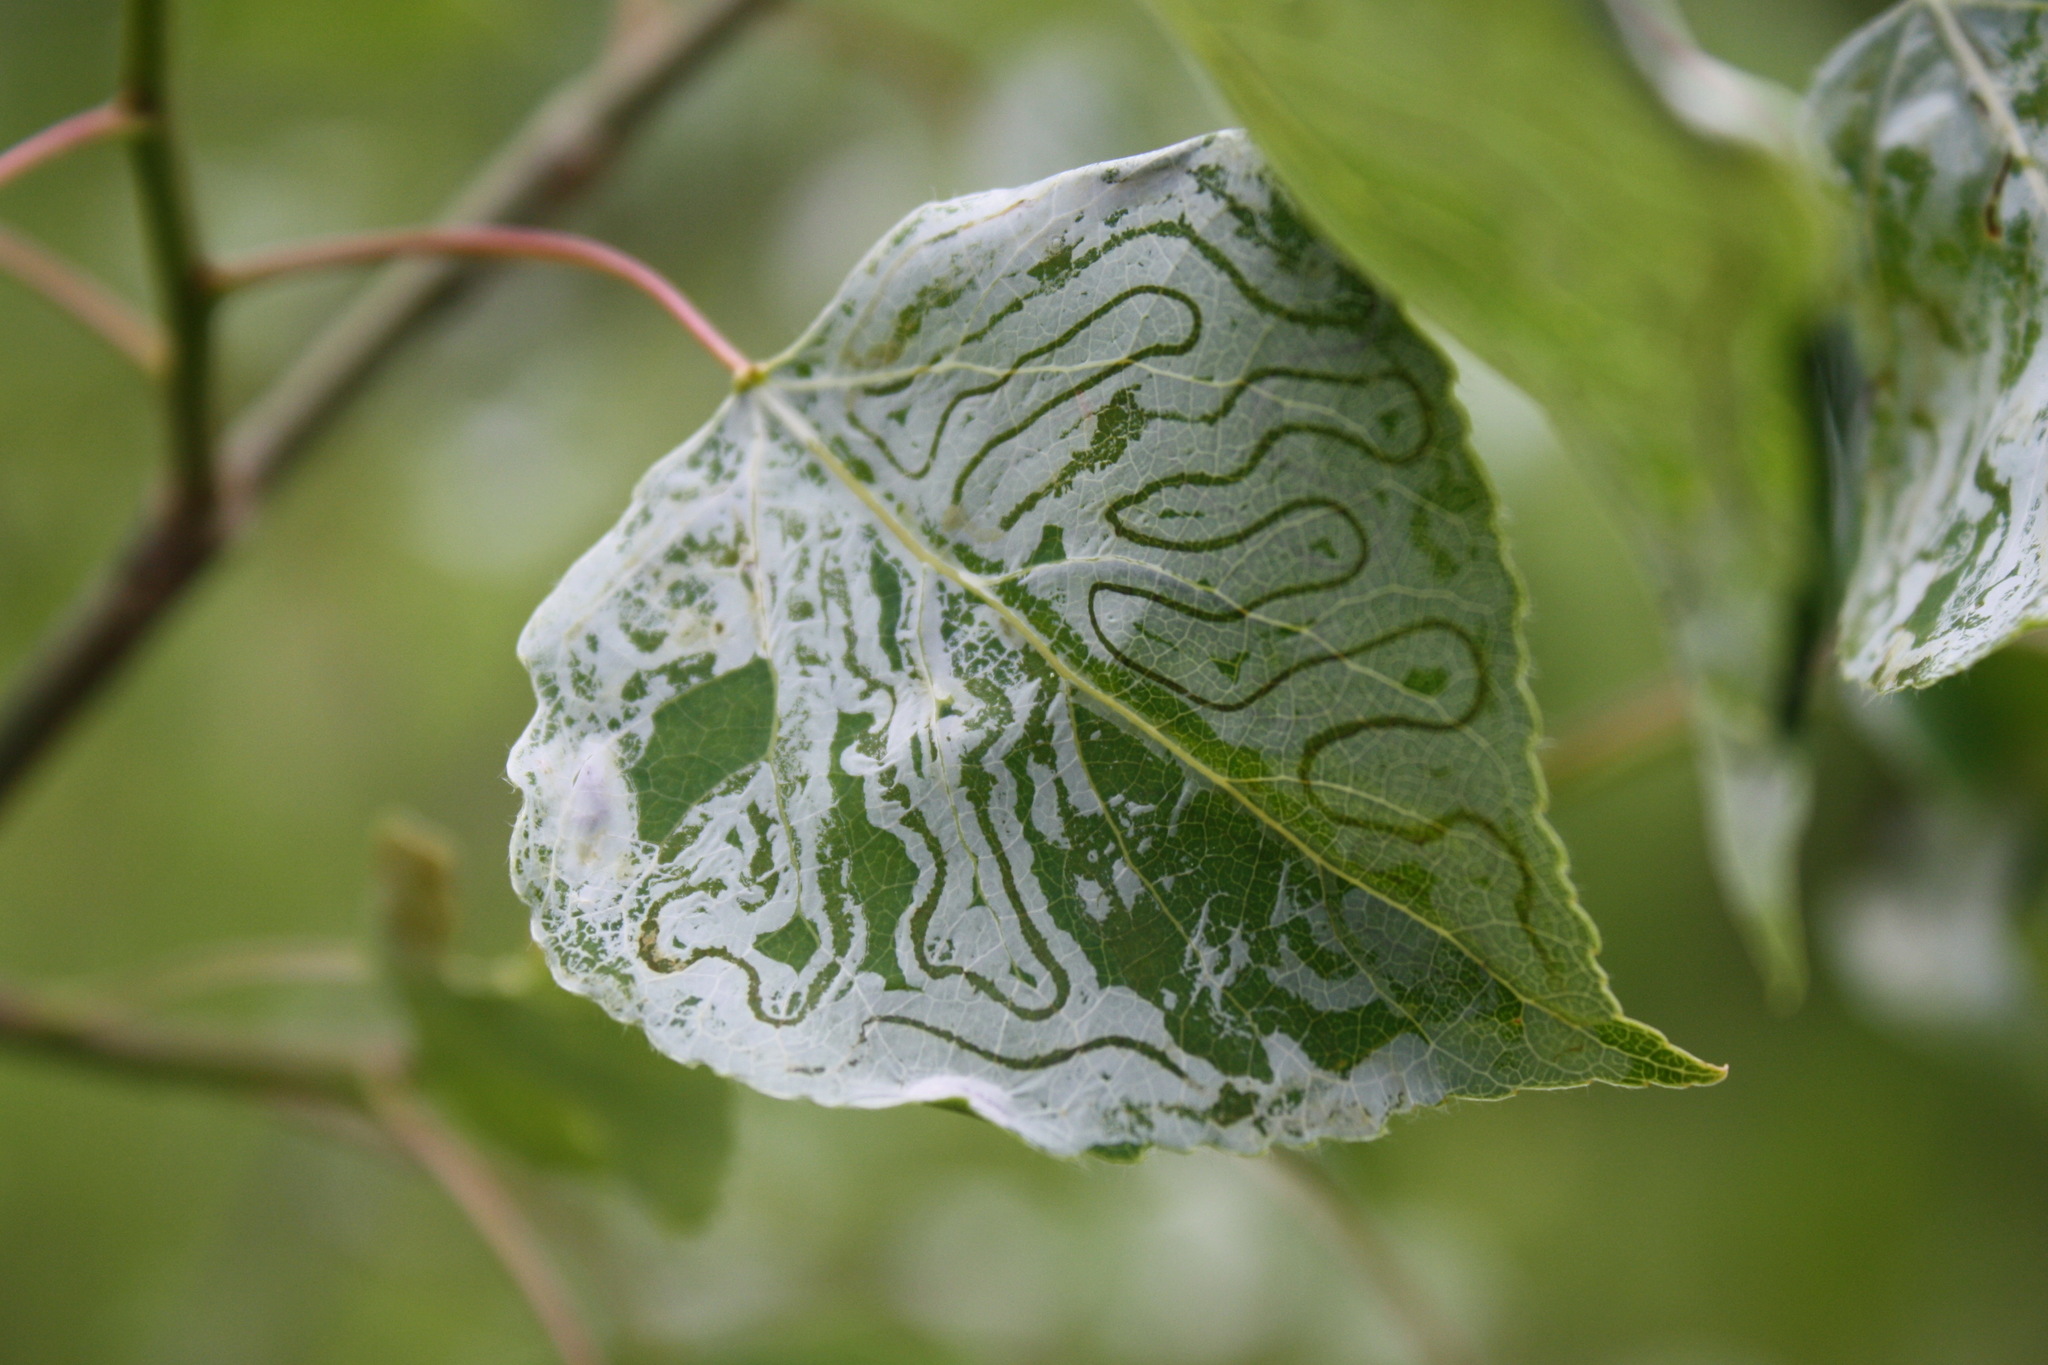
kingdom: Animalia
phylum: Arthropoda
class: Insecta
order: Lepidoptera
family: Gracillariidae
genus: Phyllocnistis
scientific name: Phyllocnistis populiella
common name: Aspen serpentine leafminer moth
